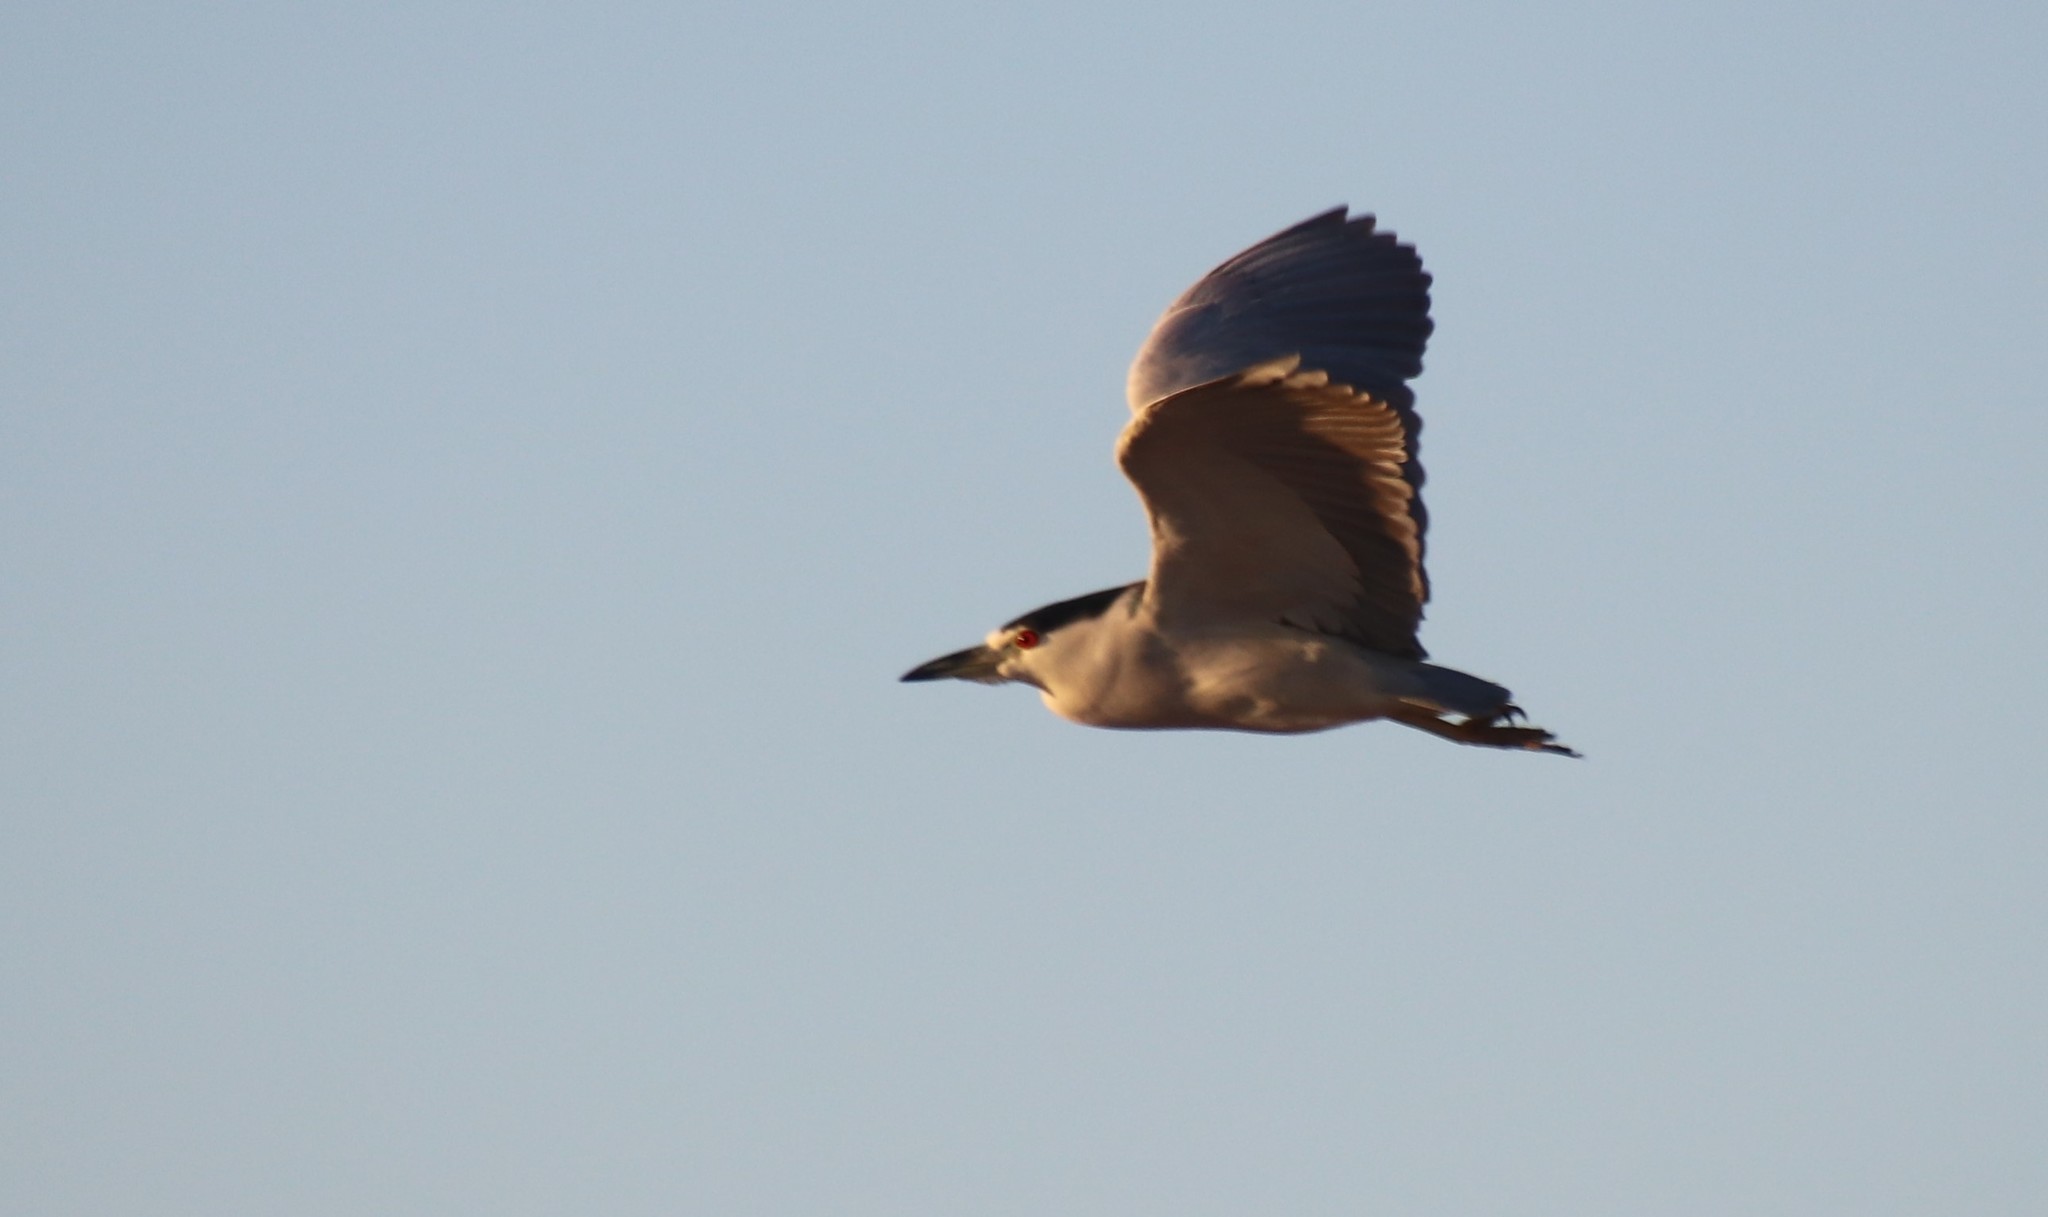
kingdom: Animalia
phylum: Chordata
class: Aves
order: Pelecaniformes
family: Ardeidae
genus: Nycticorax
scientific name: Nycticorax nycticorax
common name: Black-crowned night heron
